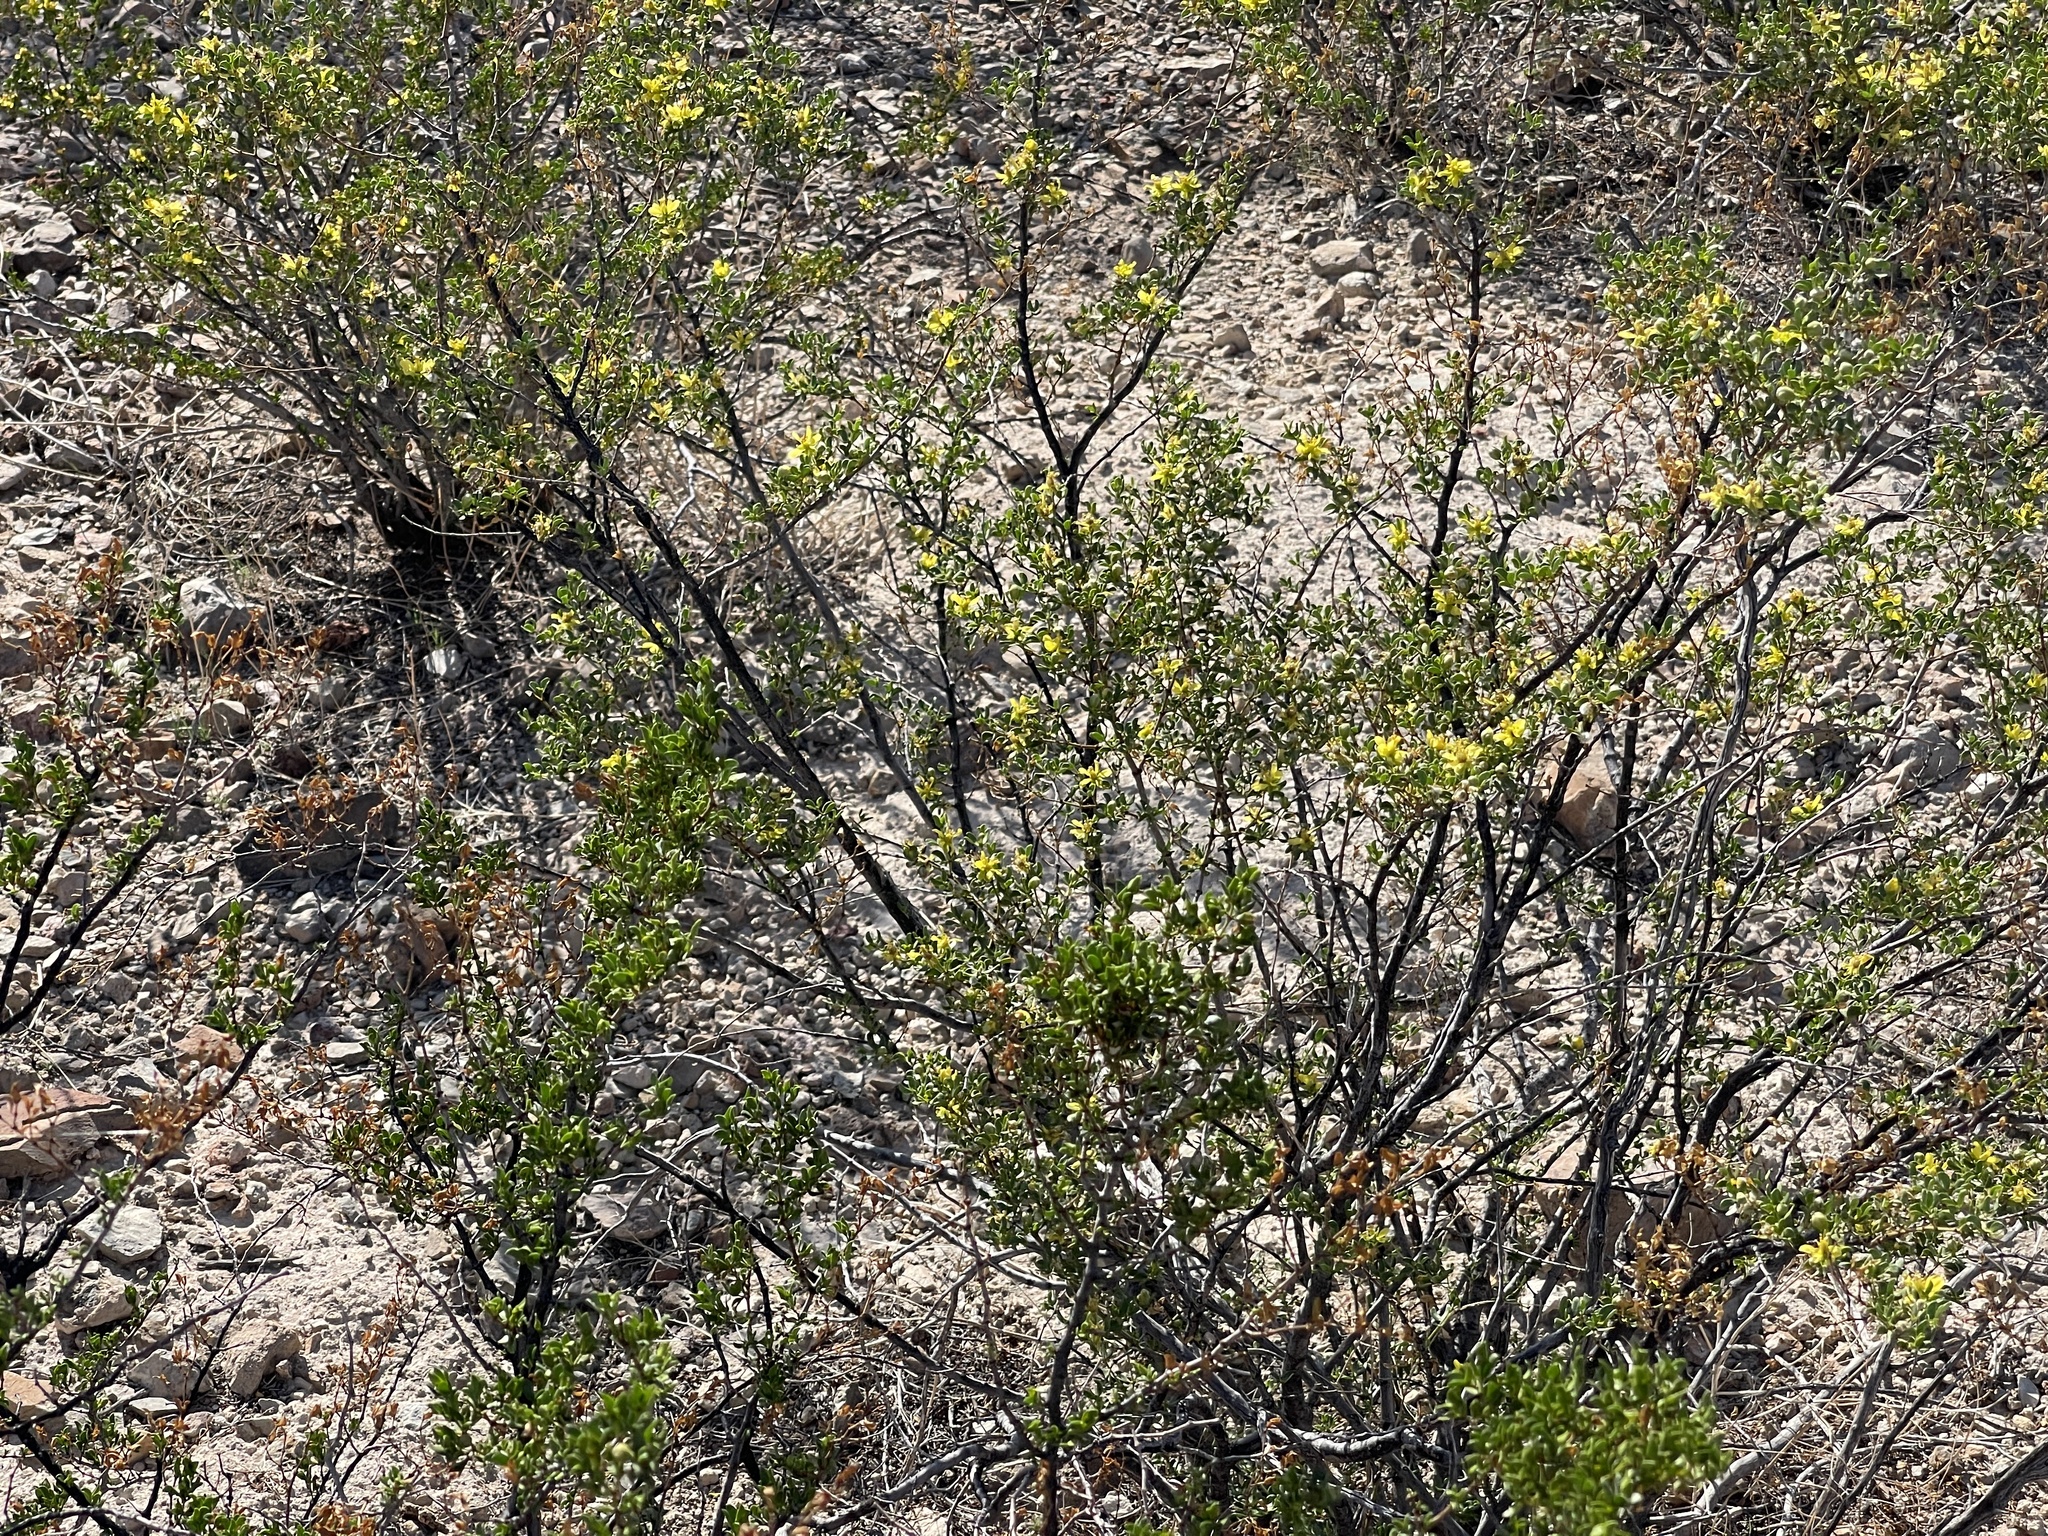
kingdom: Plantae
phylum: Tracheophyta
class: Magnoliopsida
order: Zygophyllales
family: Zygophyllaceae
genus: Larrea
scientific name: Larrea tridentata
